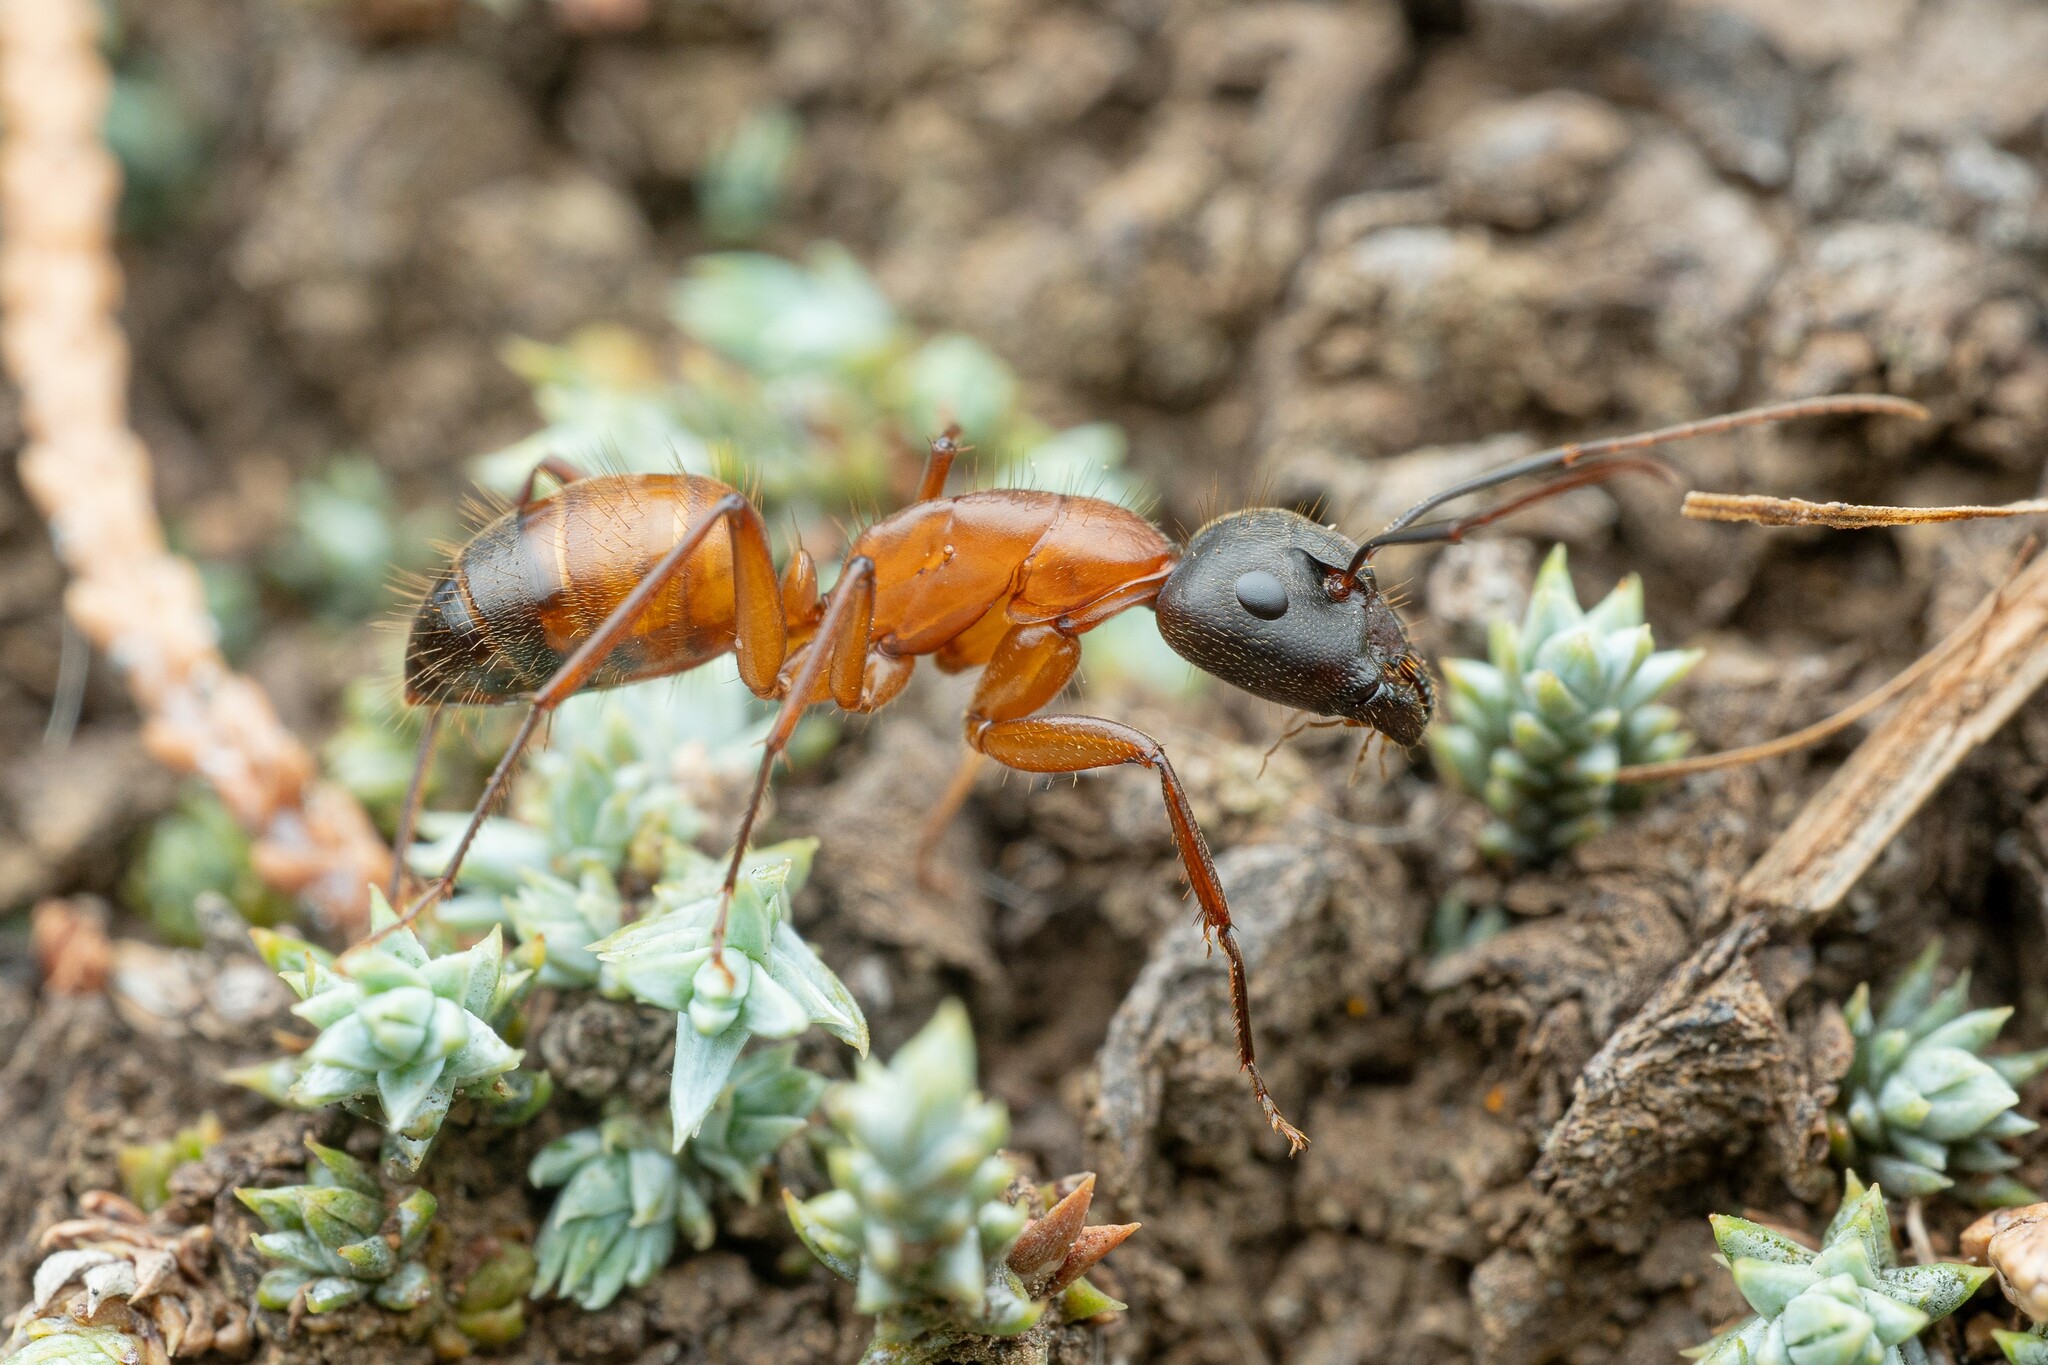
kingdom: Animalia
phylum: Arthropoda
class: Insecta
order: Hymenoptera
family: Formicidae
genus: Camponotus
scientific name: Camponotus semitestaceus
